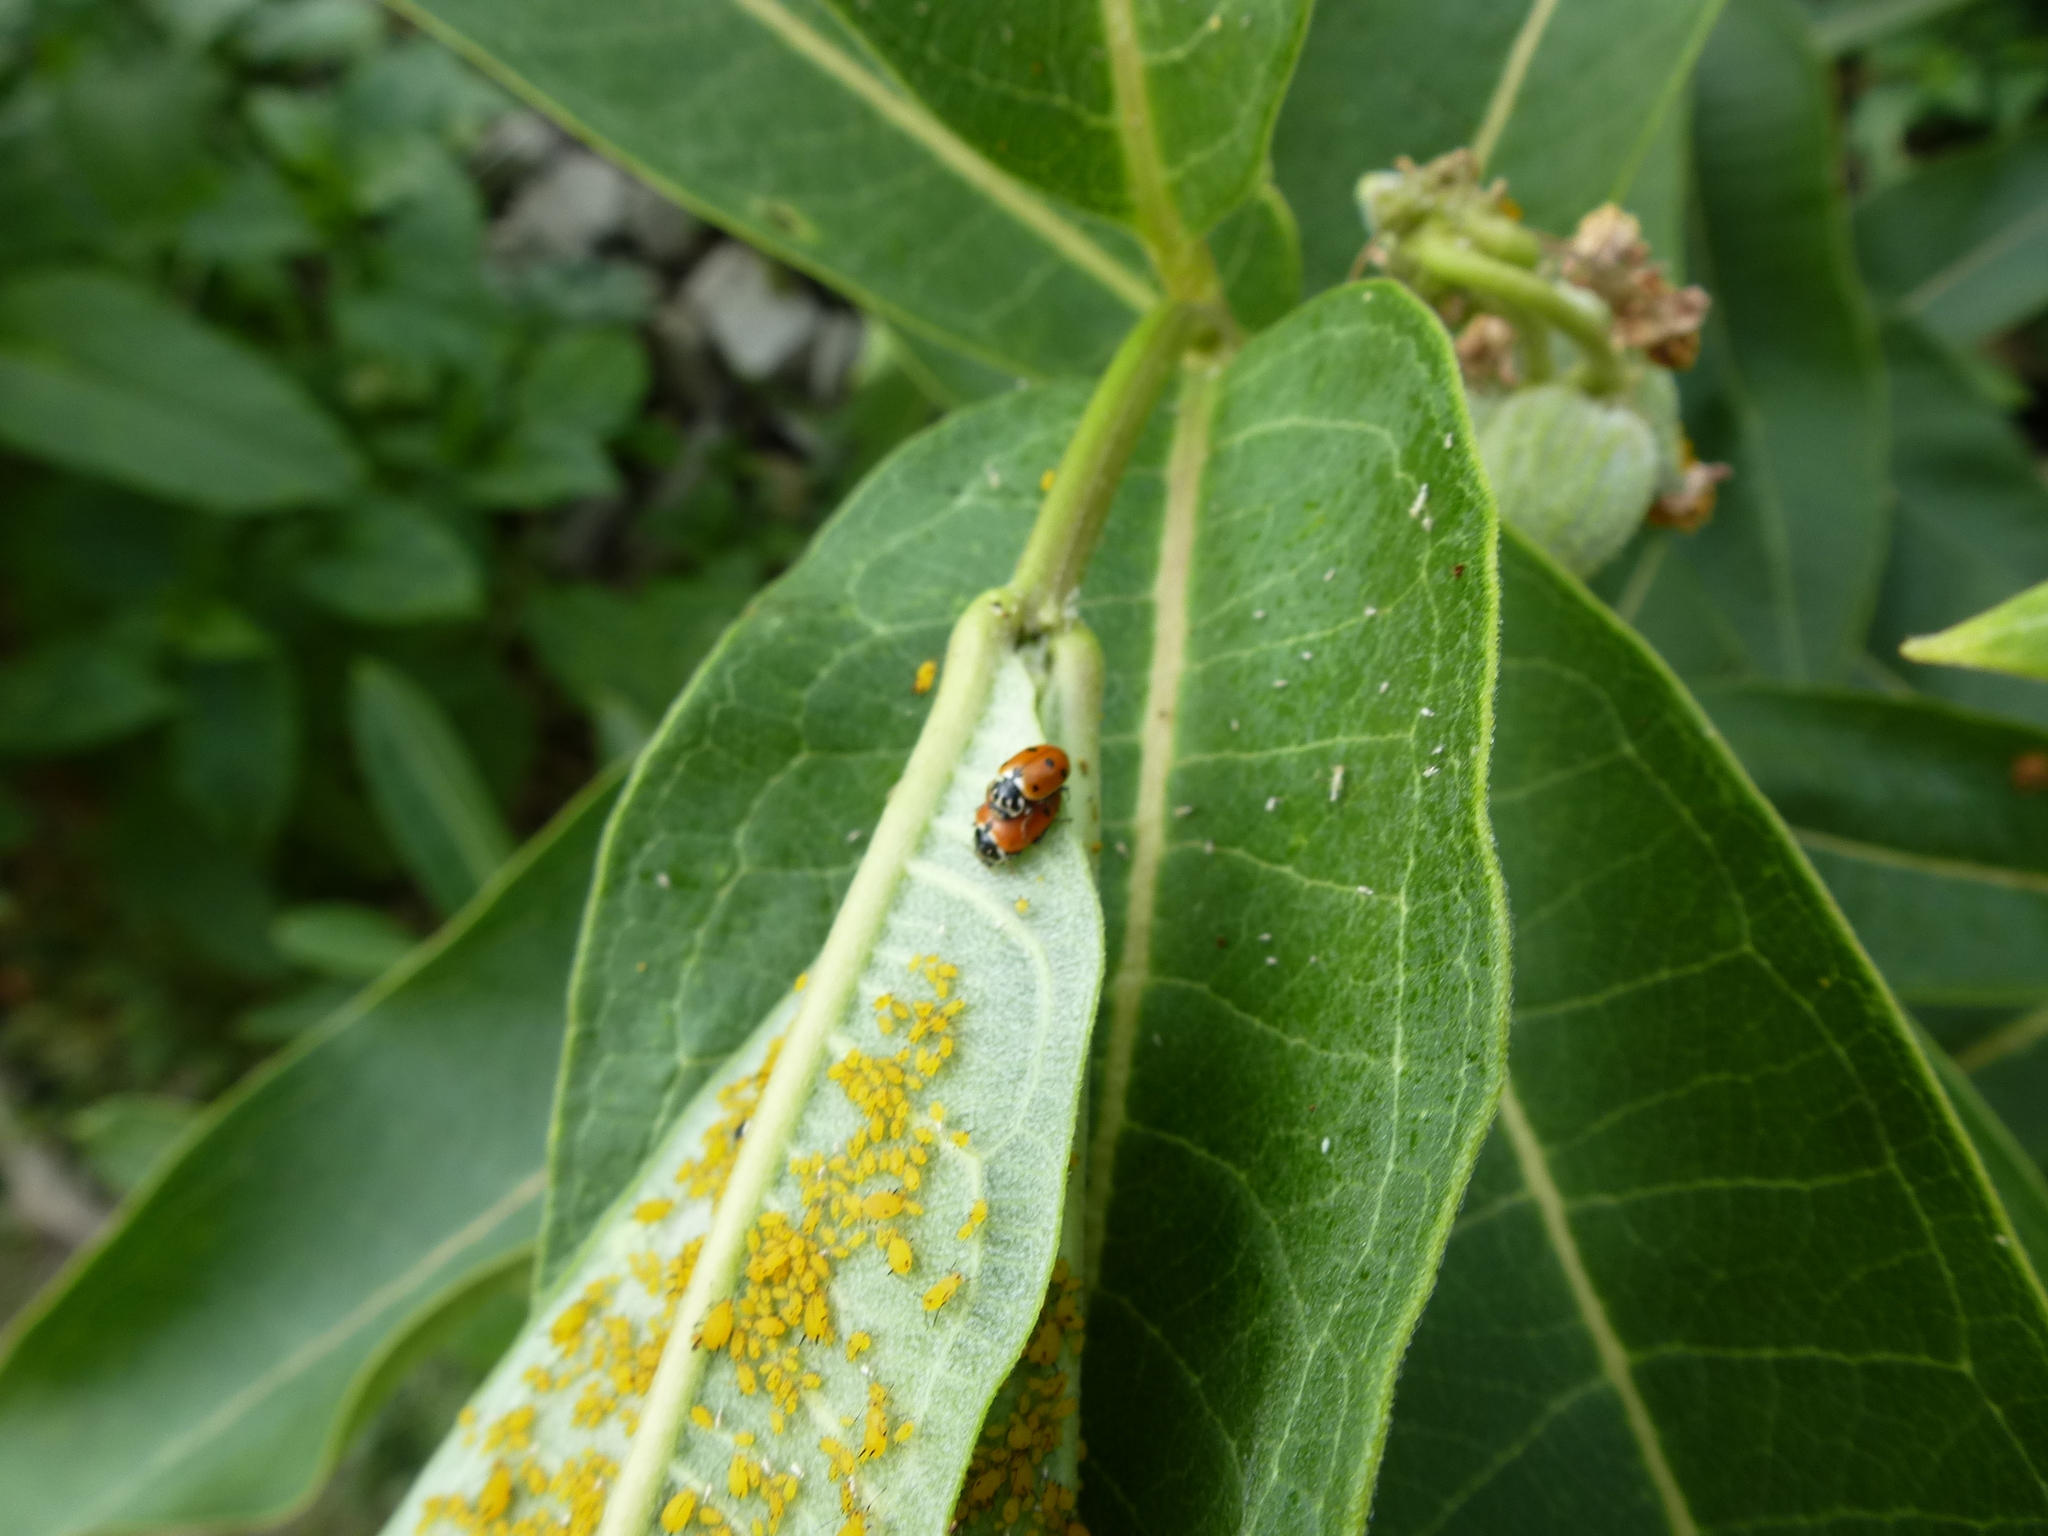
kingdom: Animalia
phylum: Arthropoda
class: Insecta
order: Coleoptera
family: Coccinellidae
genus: Hippodamia
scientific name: Hippodamia variegata
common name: Ladybird beetle
